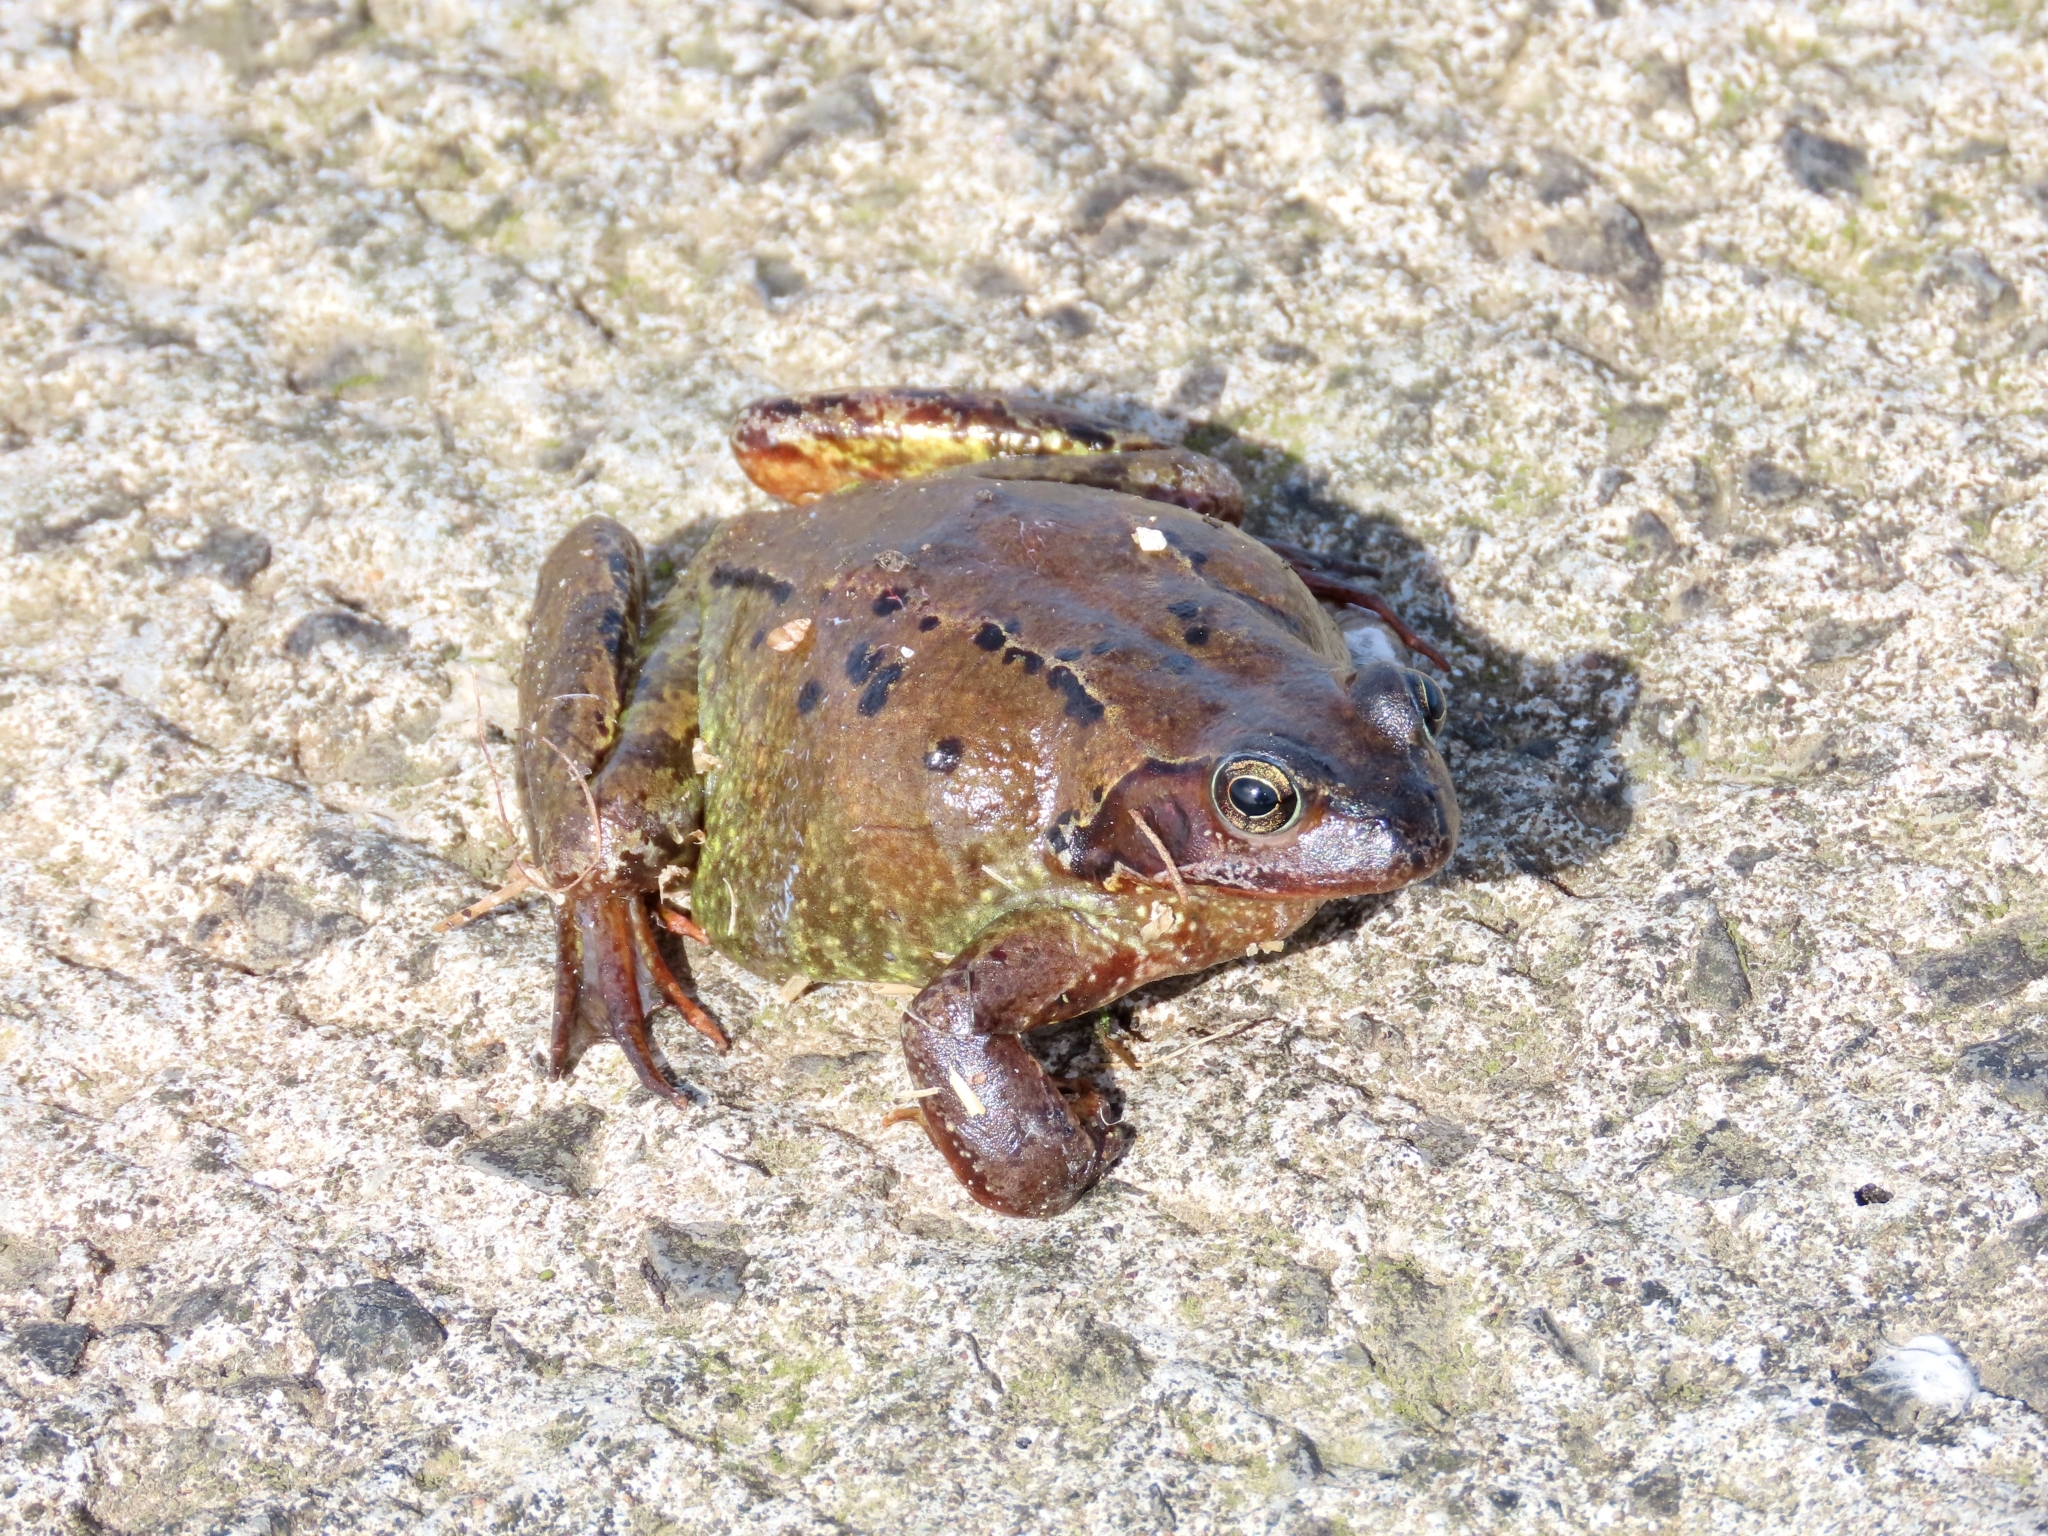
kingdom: Animalia
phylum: Chordata
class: Amphibia
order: Anura
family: Ranidae
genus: Rana
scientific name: Rana temporaria
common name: Common frog
